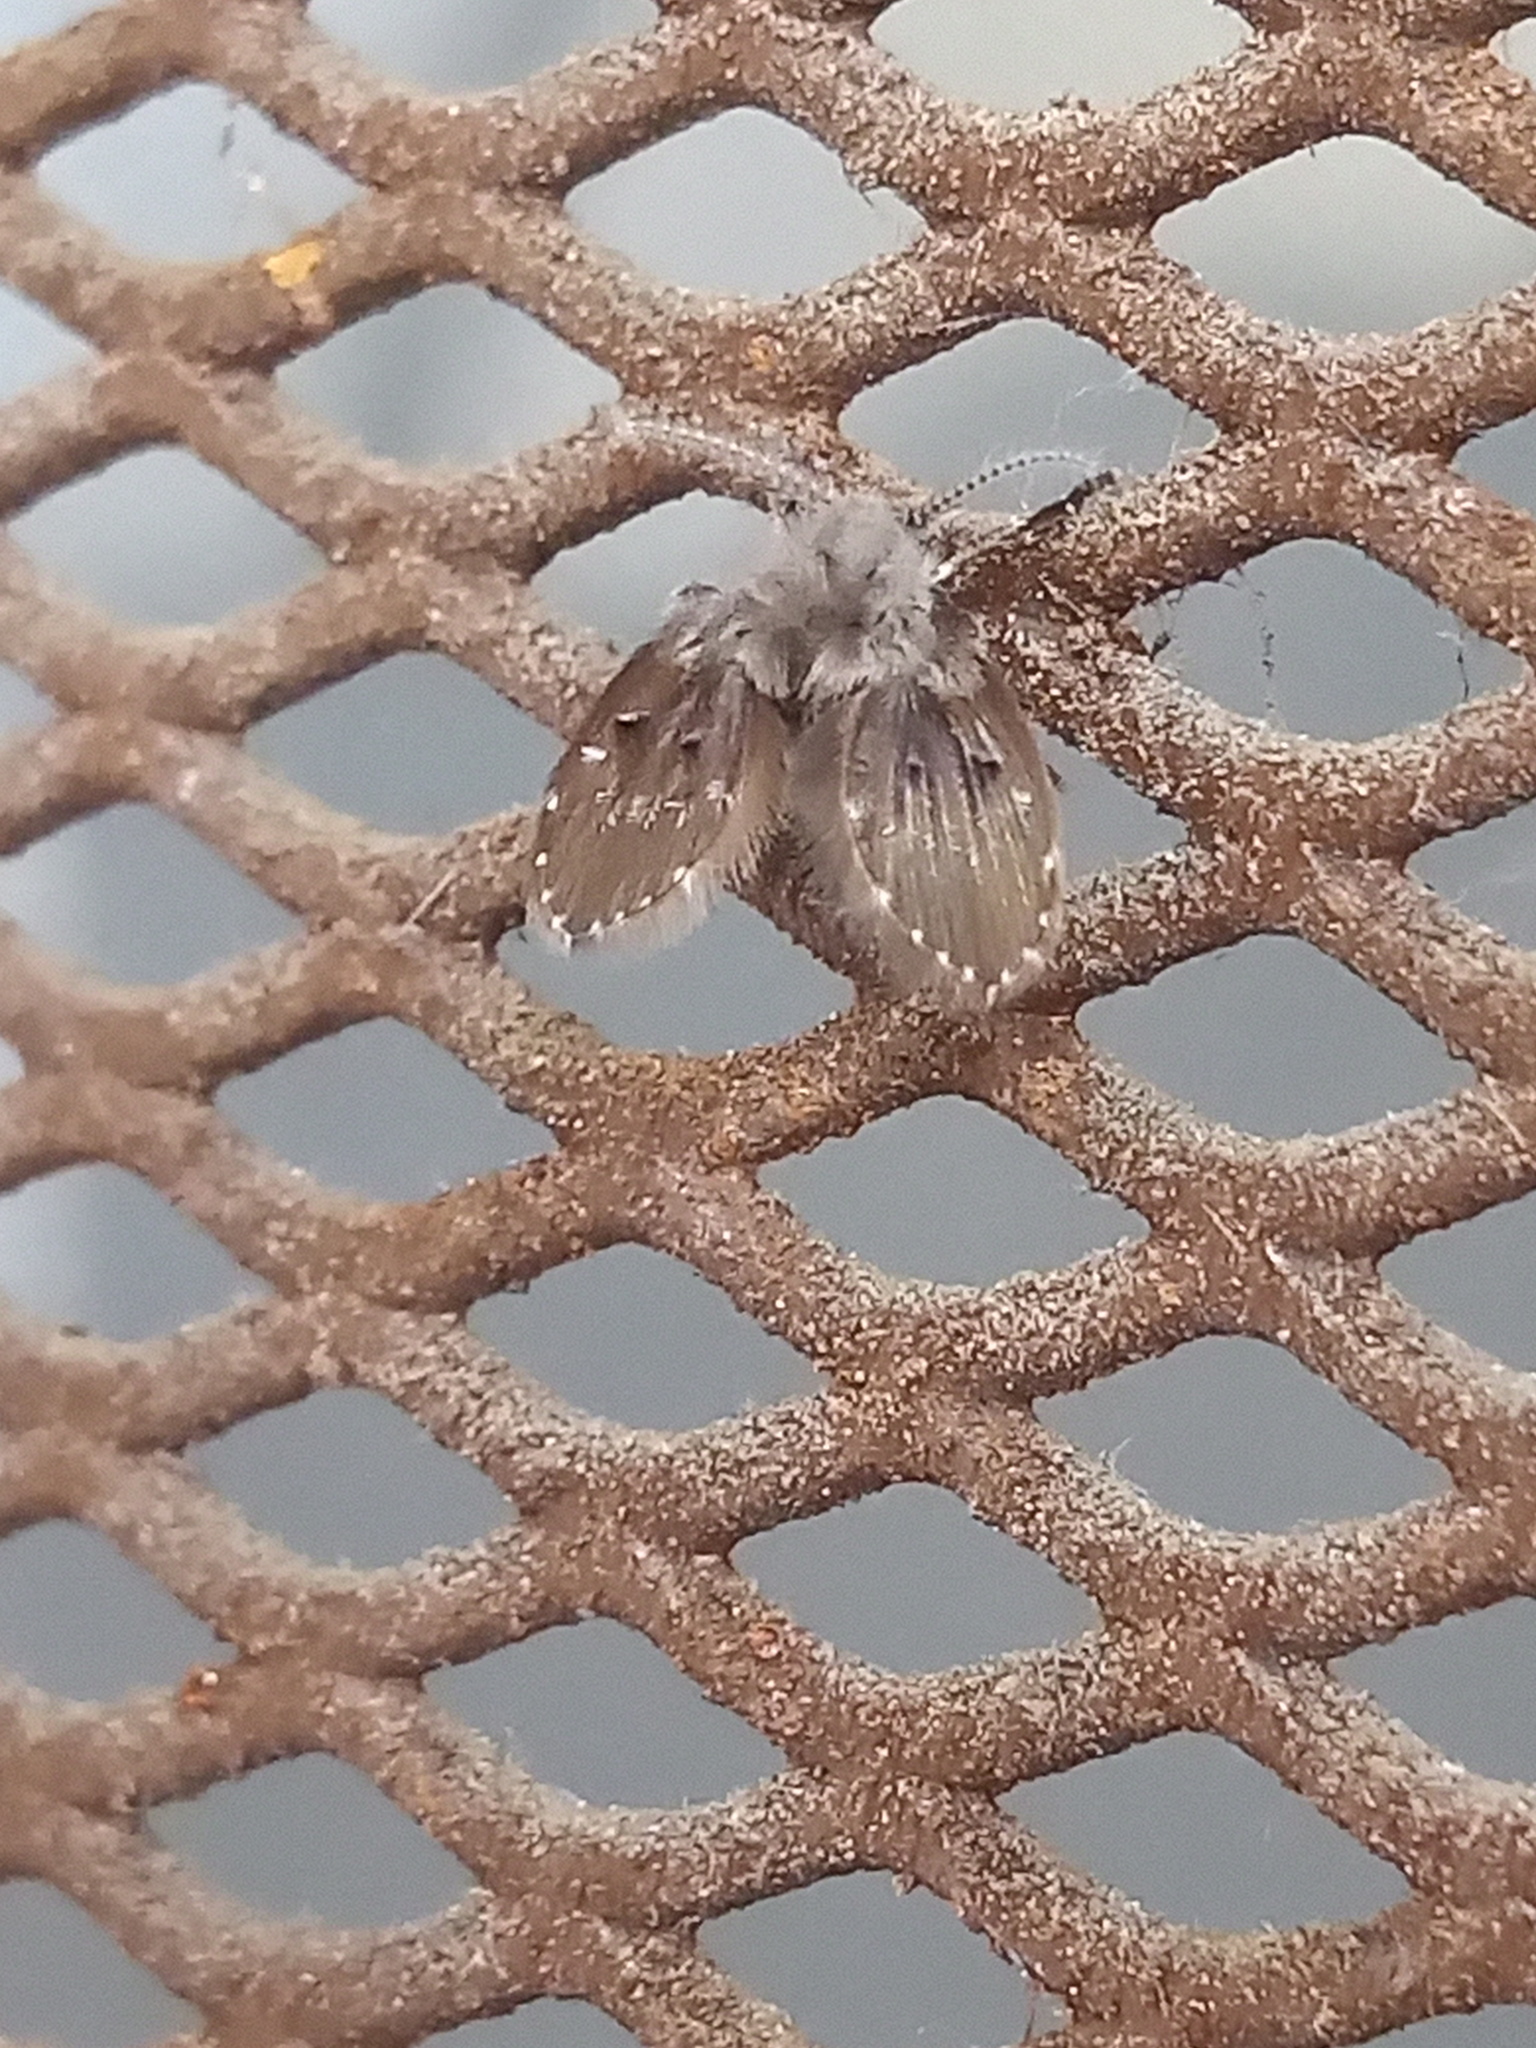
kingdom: Animalia
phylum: Arthropoda
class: Insecta
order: Diptera
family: Psychodidae
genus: Clogmia
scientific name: Clogmia albipunctatus
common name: White-spotted moth fly
